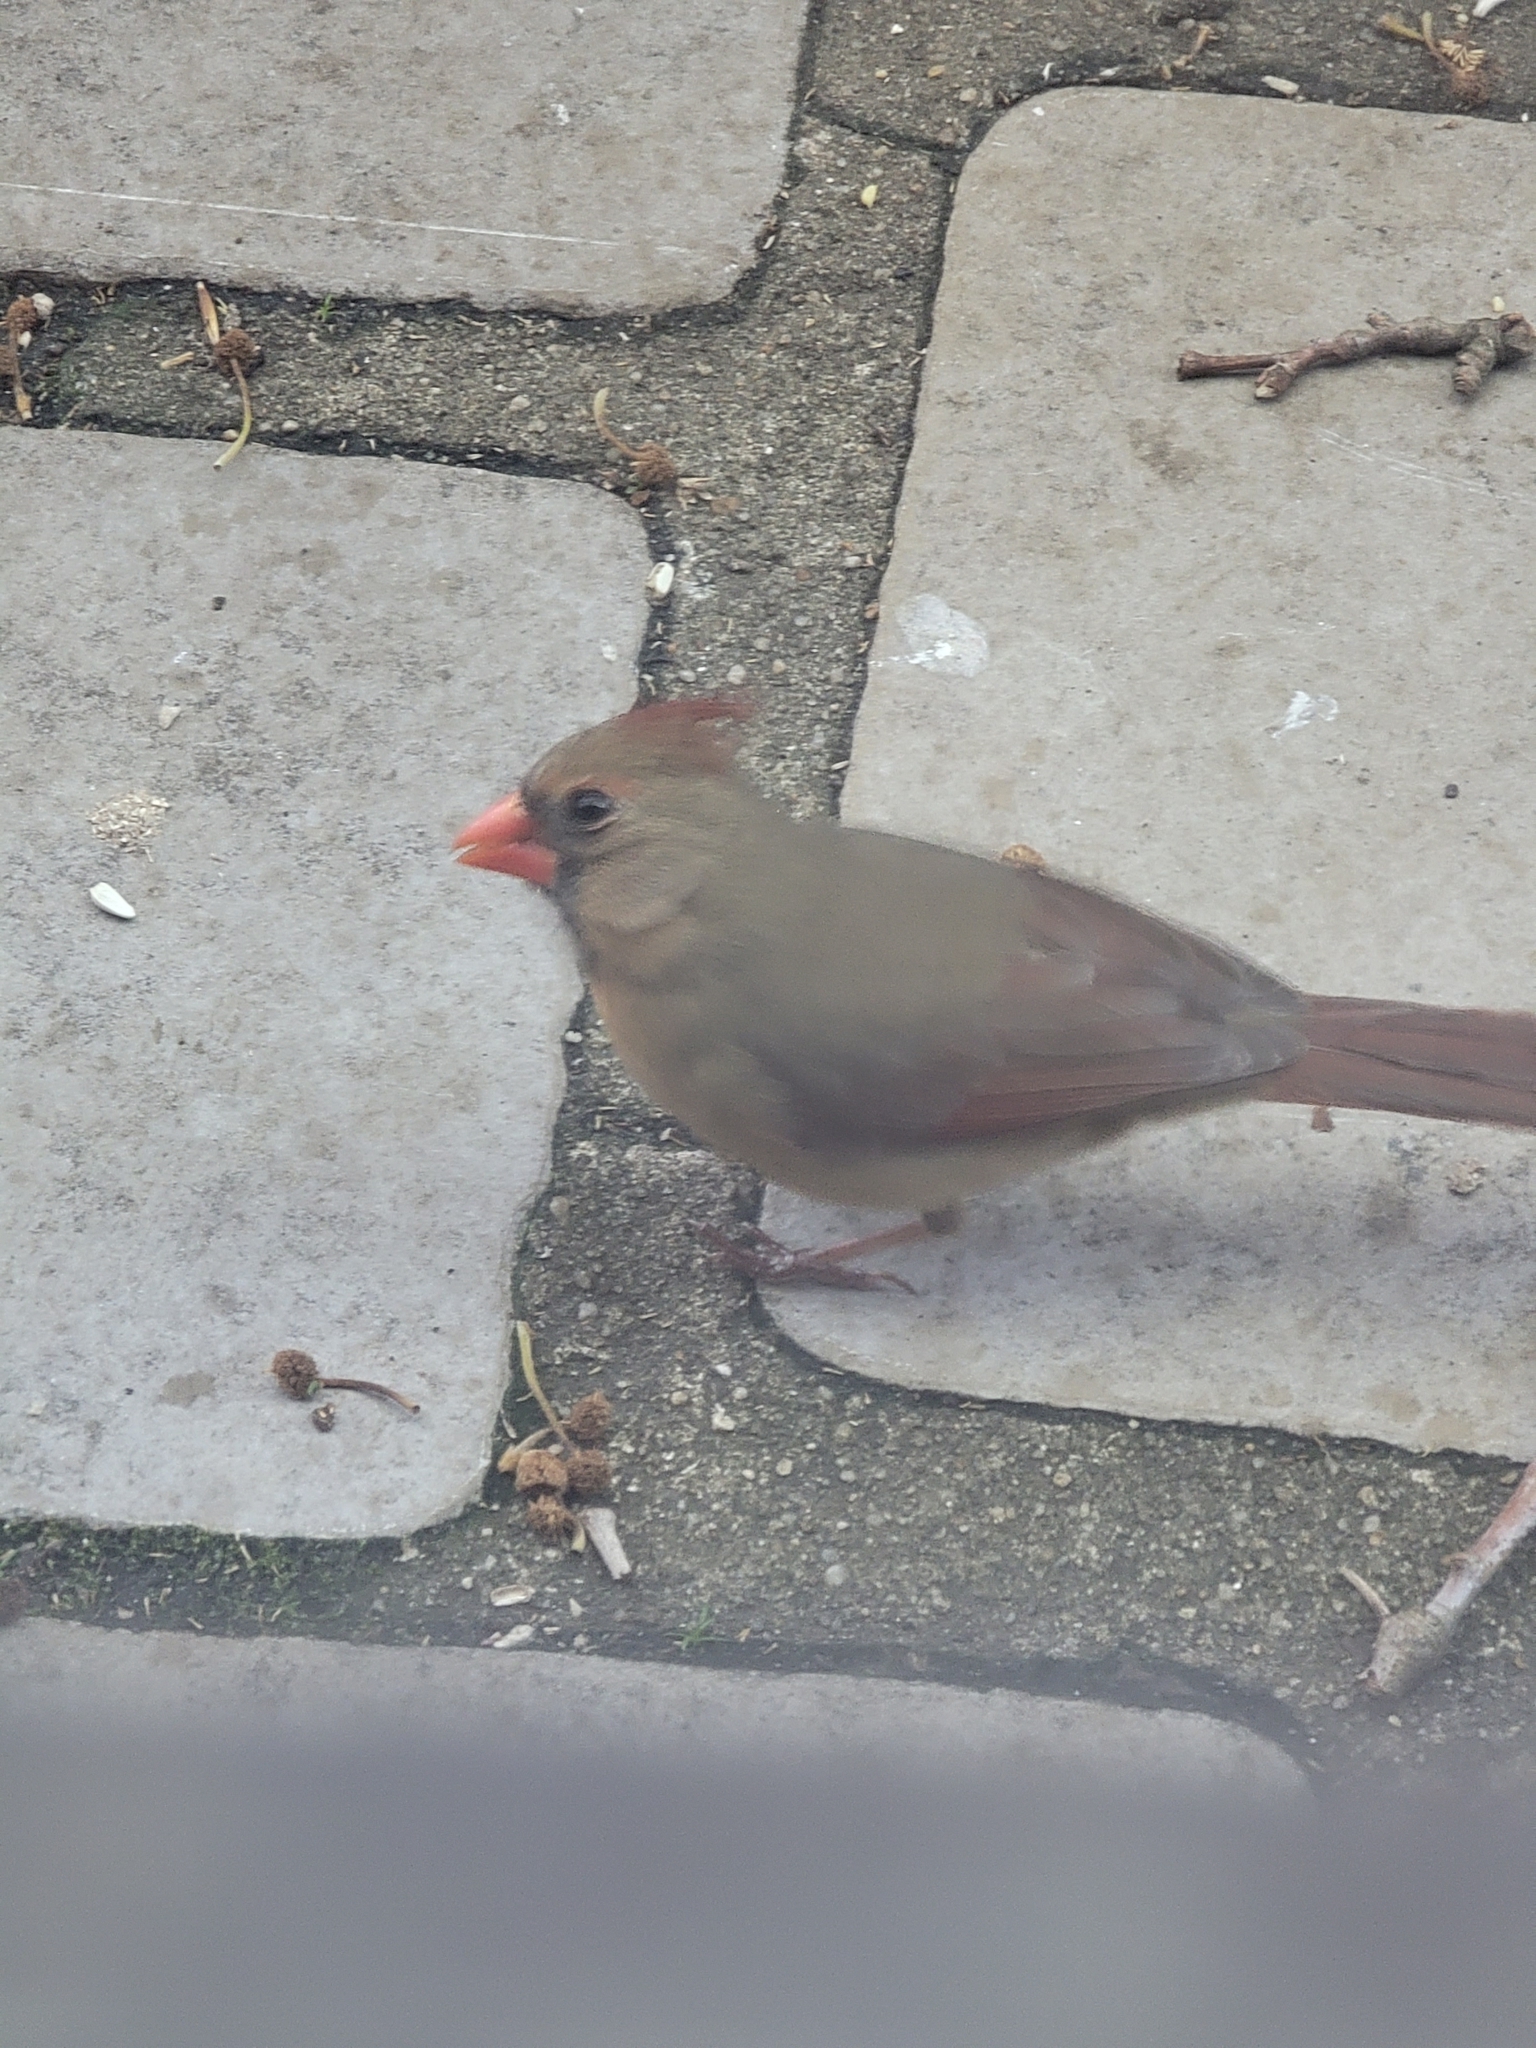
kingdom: Animalia
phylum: Chordata
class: Aves
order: Passeriformes
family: Cardinalidae
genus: Cardinalis
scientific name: Cardinalis cardinalis
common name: Northern cardinal
